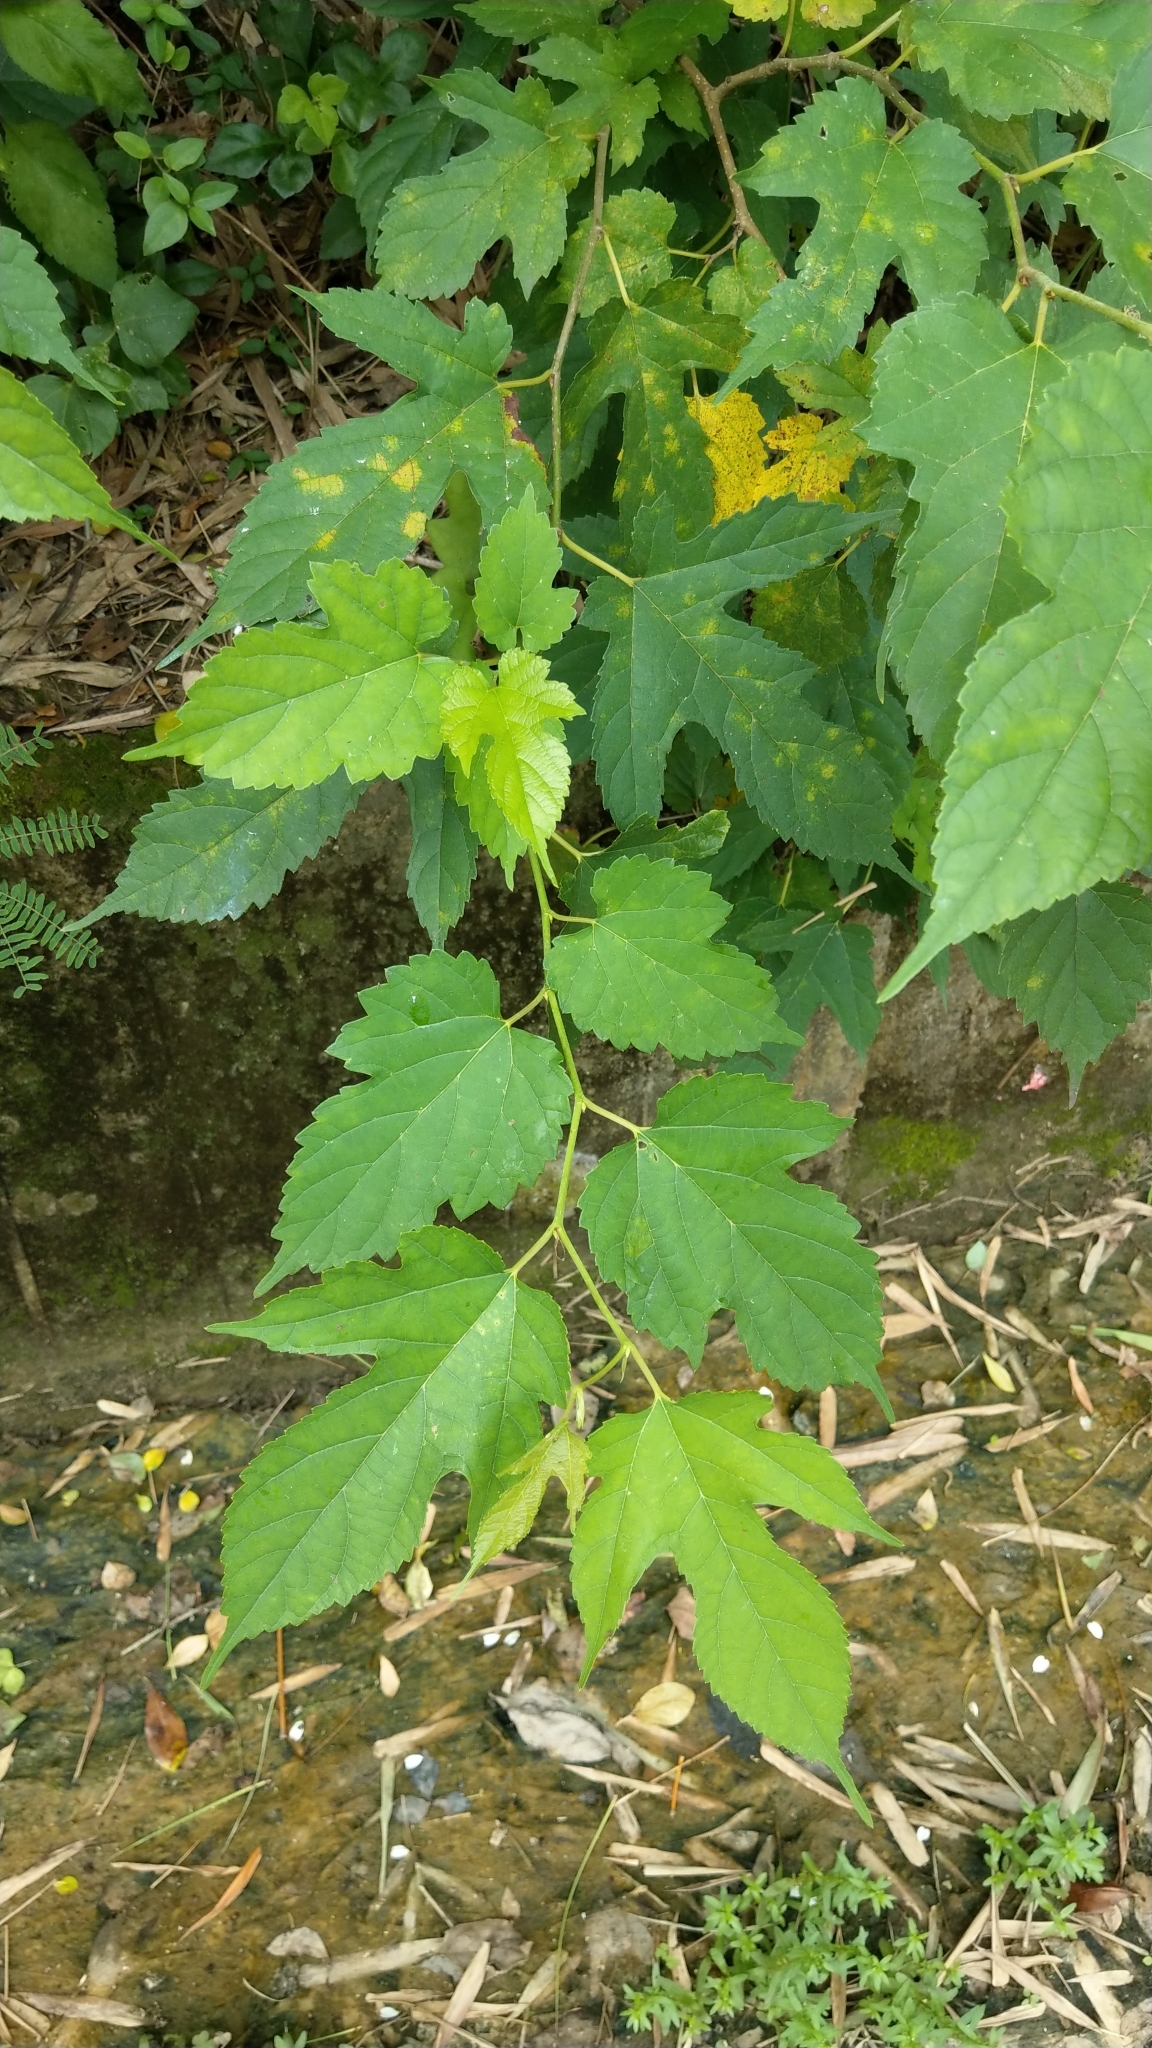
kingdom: Plantae
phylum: Tracheophyta
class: Magnoliopsida
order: Rosales
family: Moraceae
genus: Morus
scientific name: Morus indica
